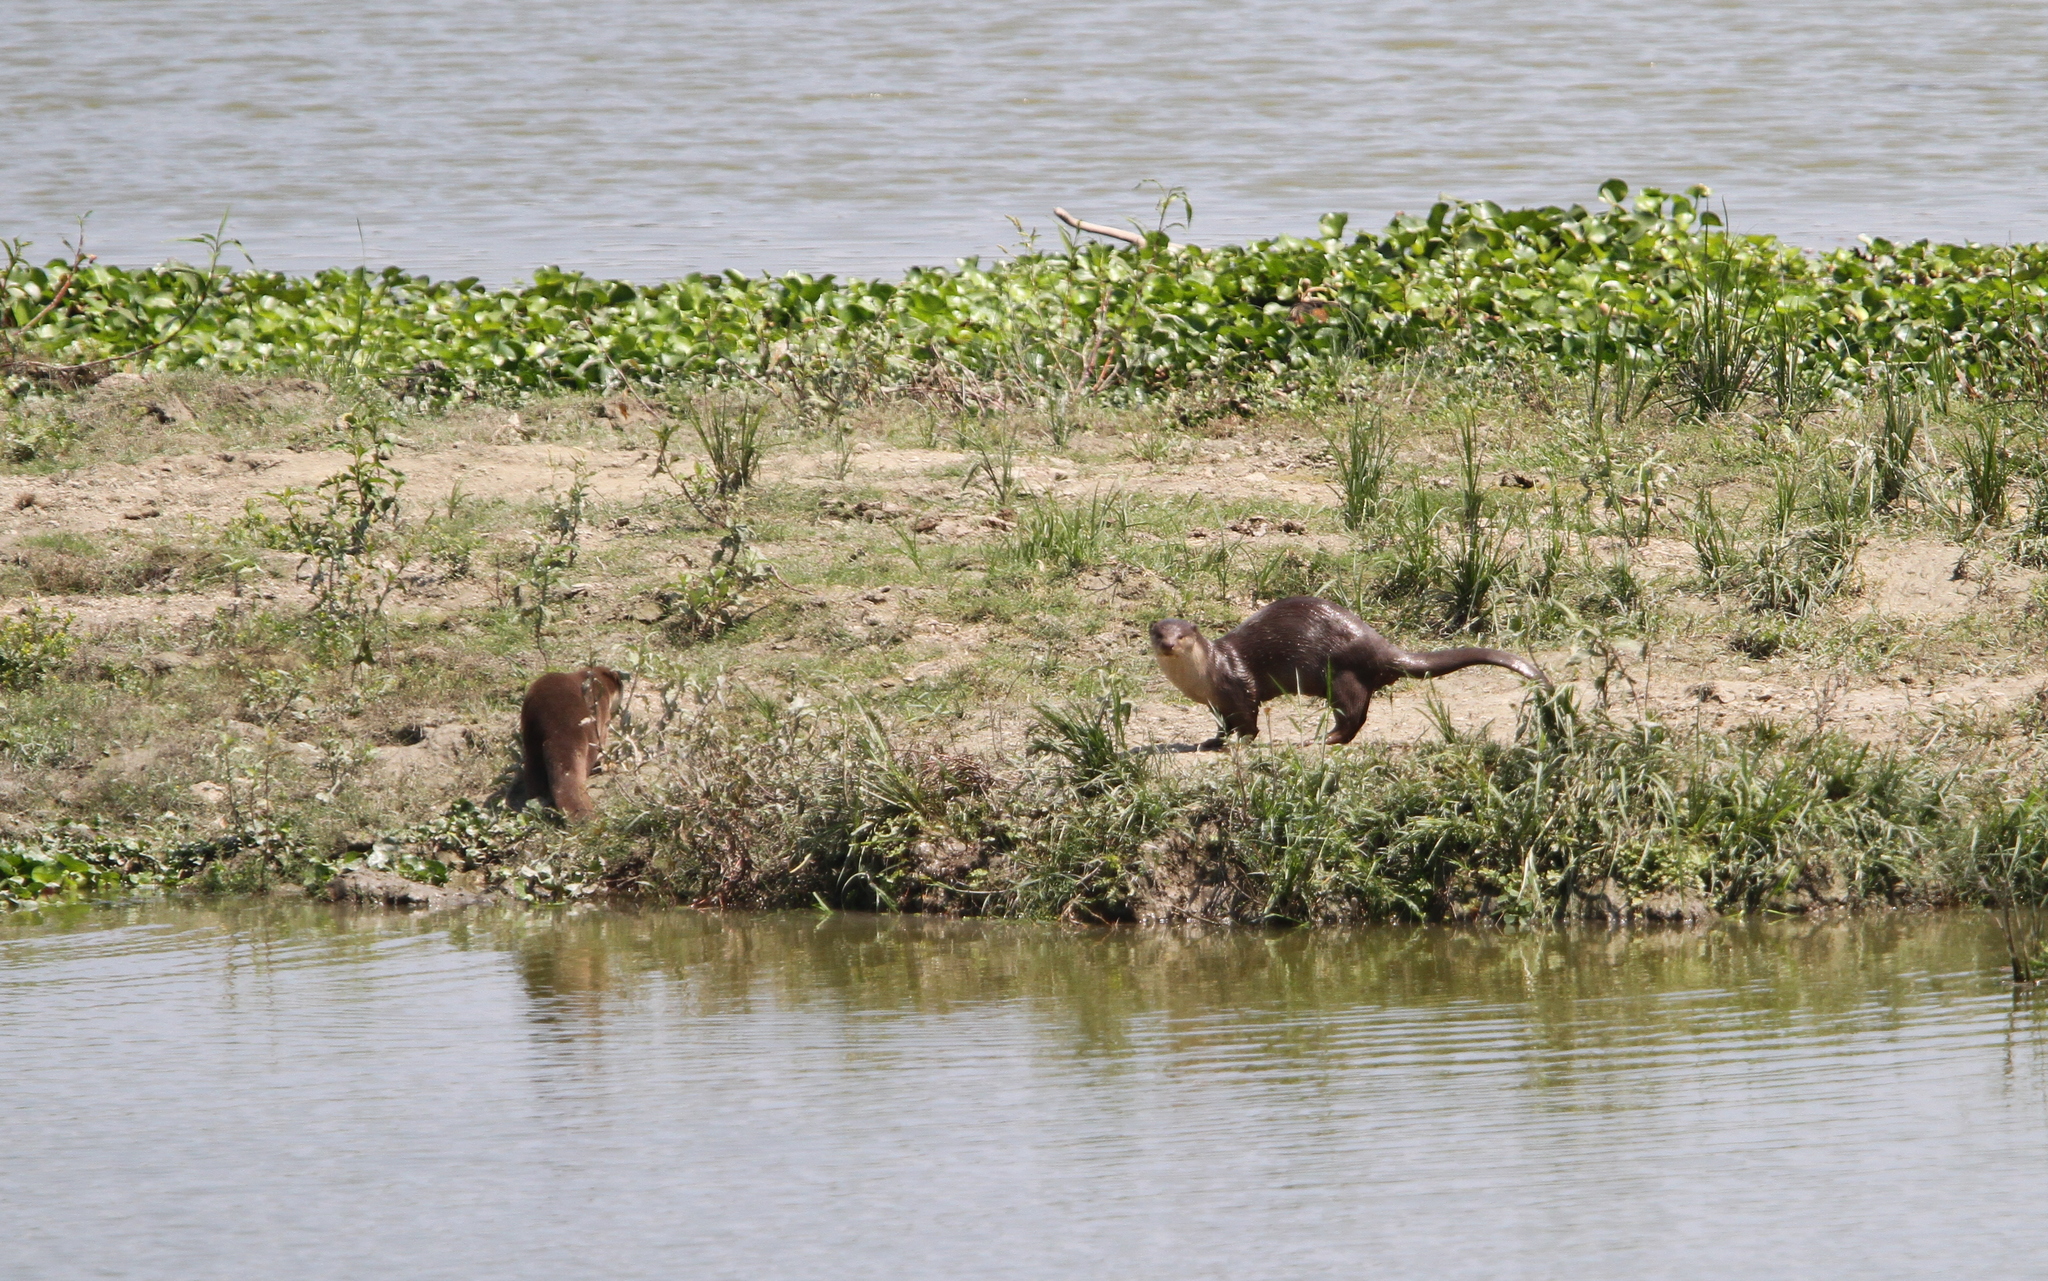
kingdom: Animalia
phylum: Chordata
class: Mammalia
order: Carnivora
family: Mustelidae
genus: Lutrogale
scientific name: Lutrogale perspicillata
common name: Smooth-coated otter
